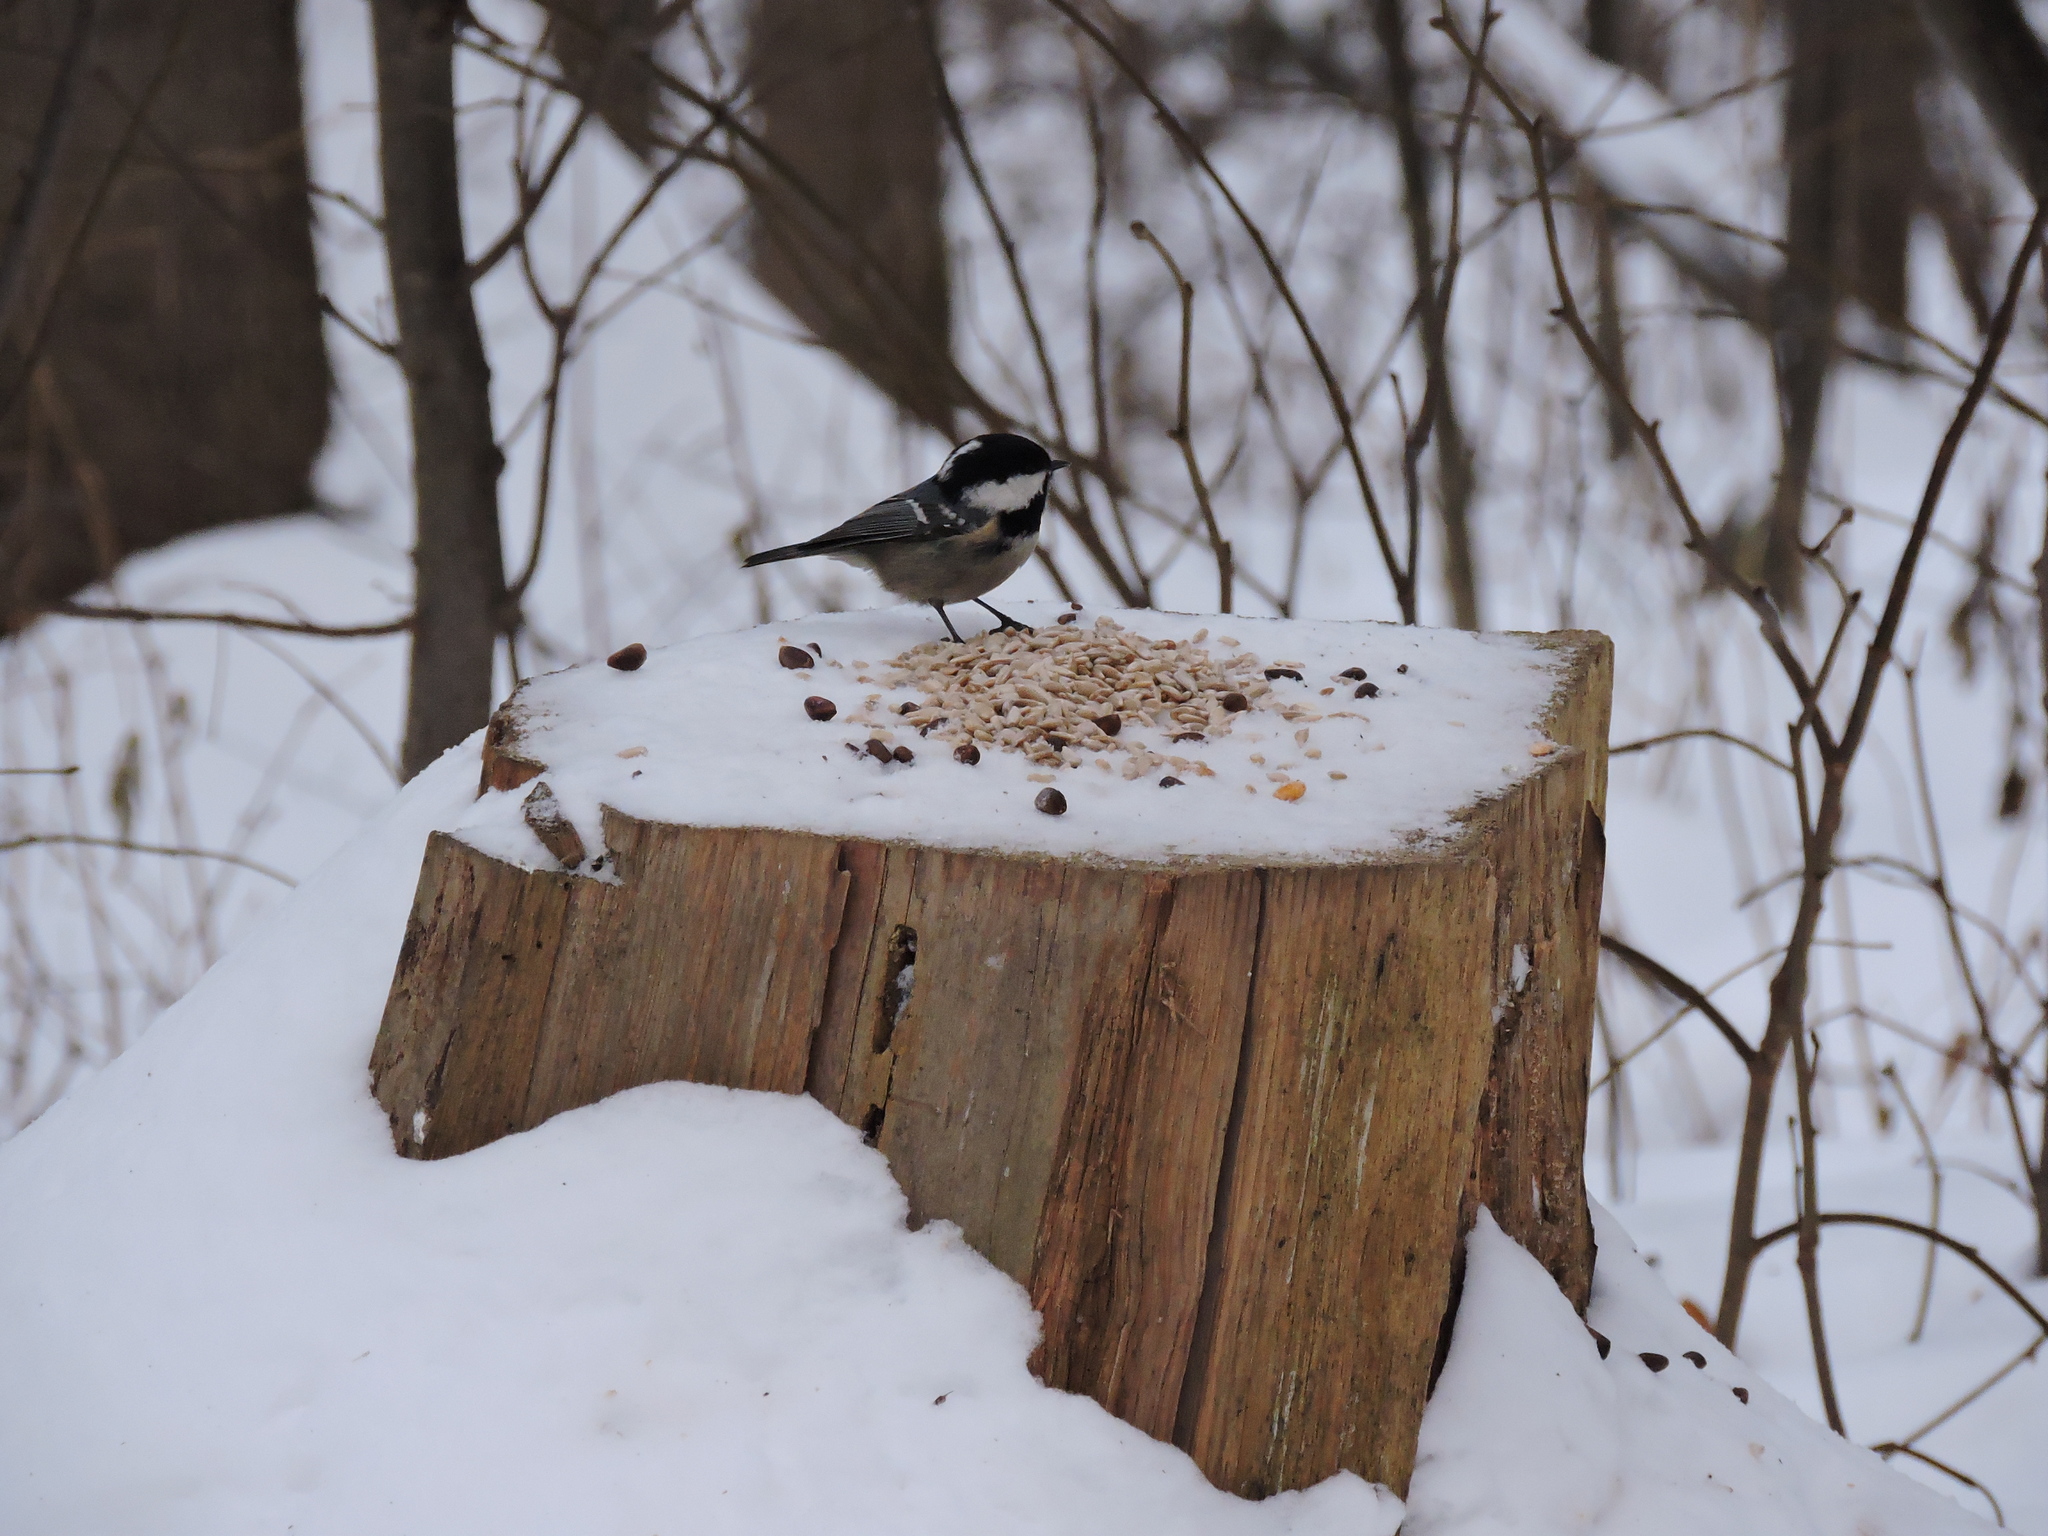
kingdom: Animalia
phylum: Chordata
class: Aves
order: Passeriformes
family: Paridae
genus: Periparus
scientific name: Periparus ater
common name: Coal tit
